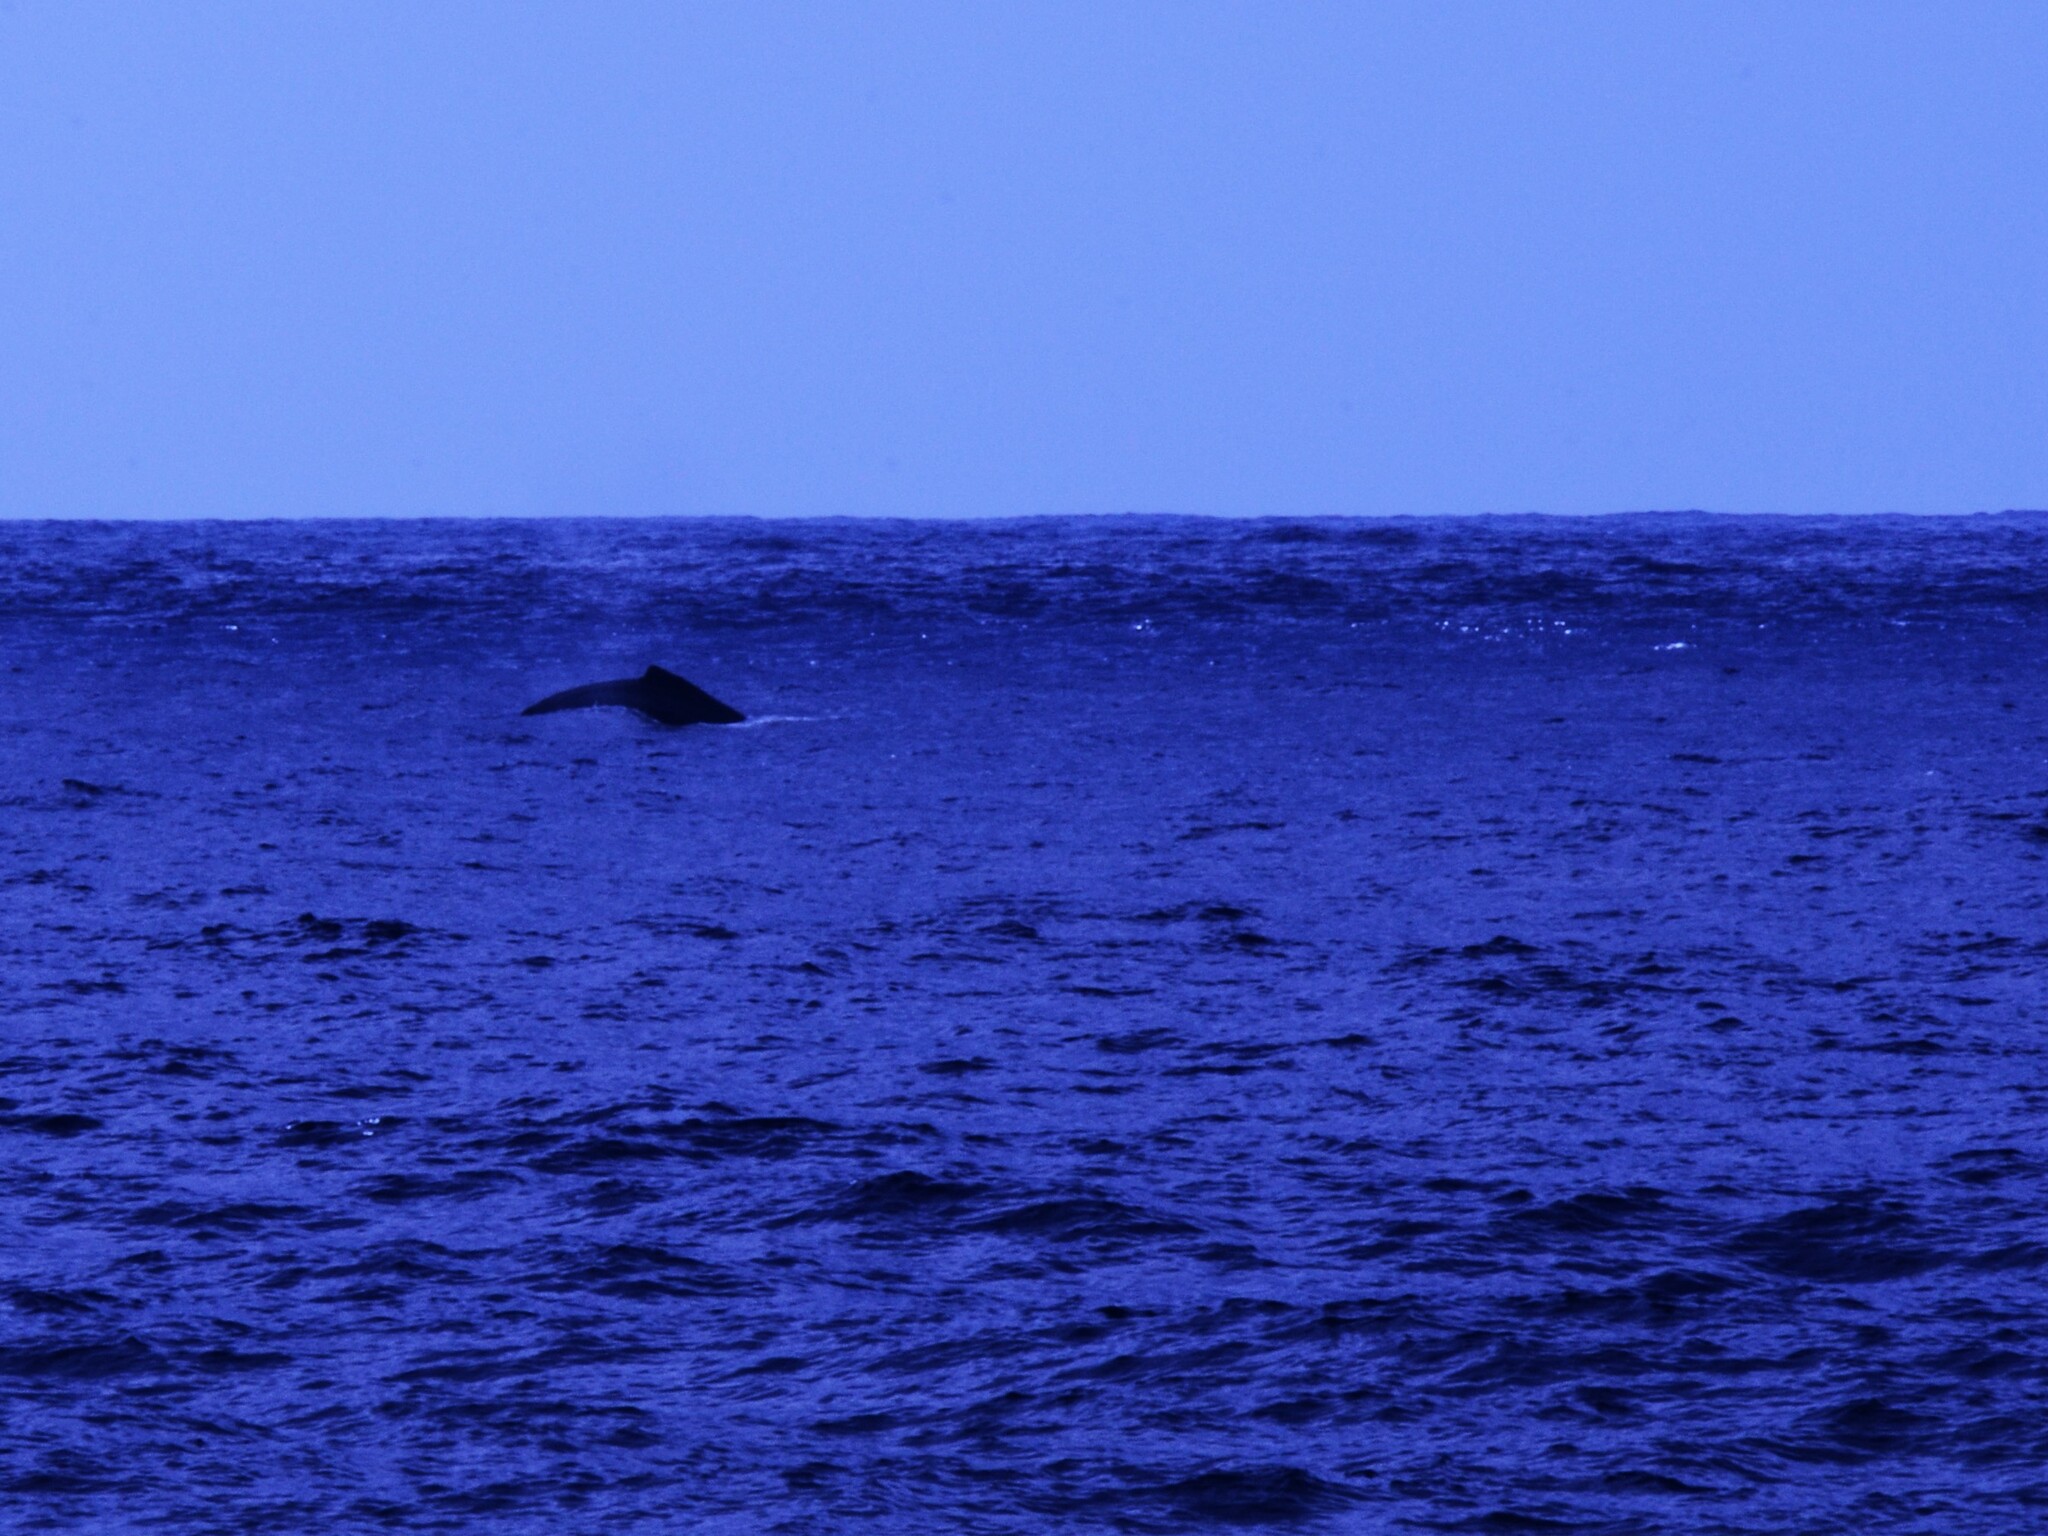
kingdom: Animalia
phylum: Chordata
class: Mammalia
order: Cetacea
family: Balaenopteridae
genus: Megaptera
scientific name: Megaptera novaeangliae
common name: Humpback whale
